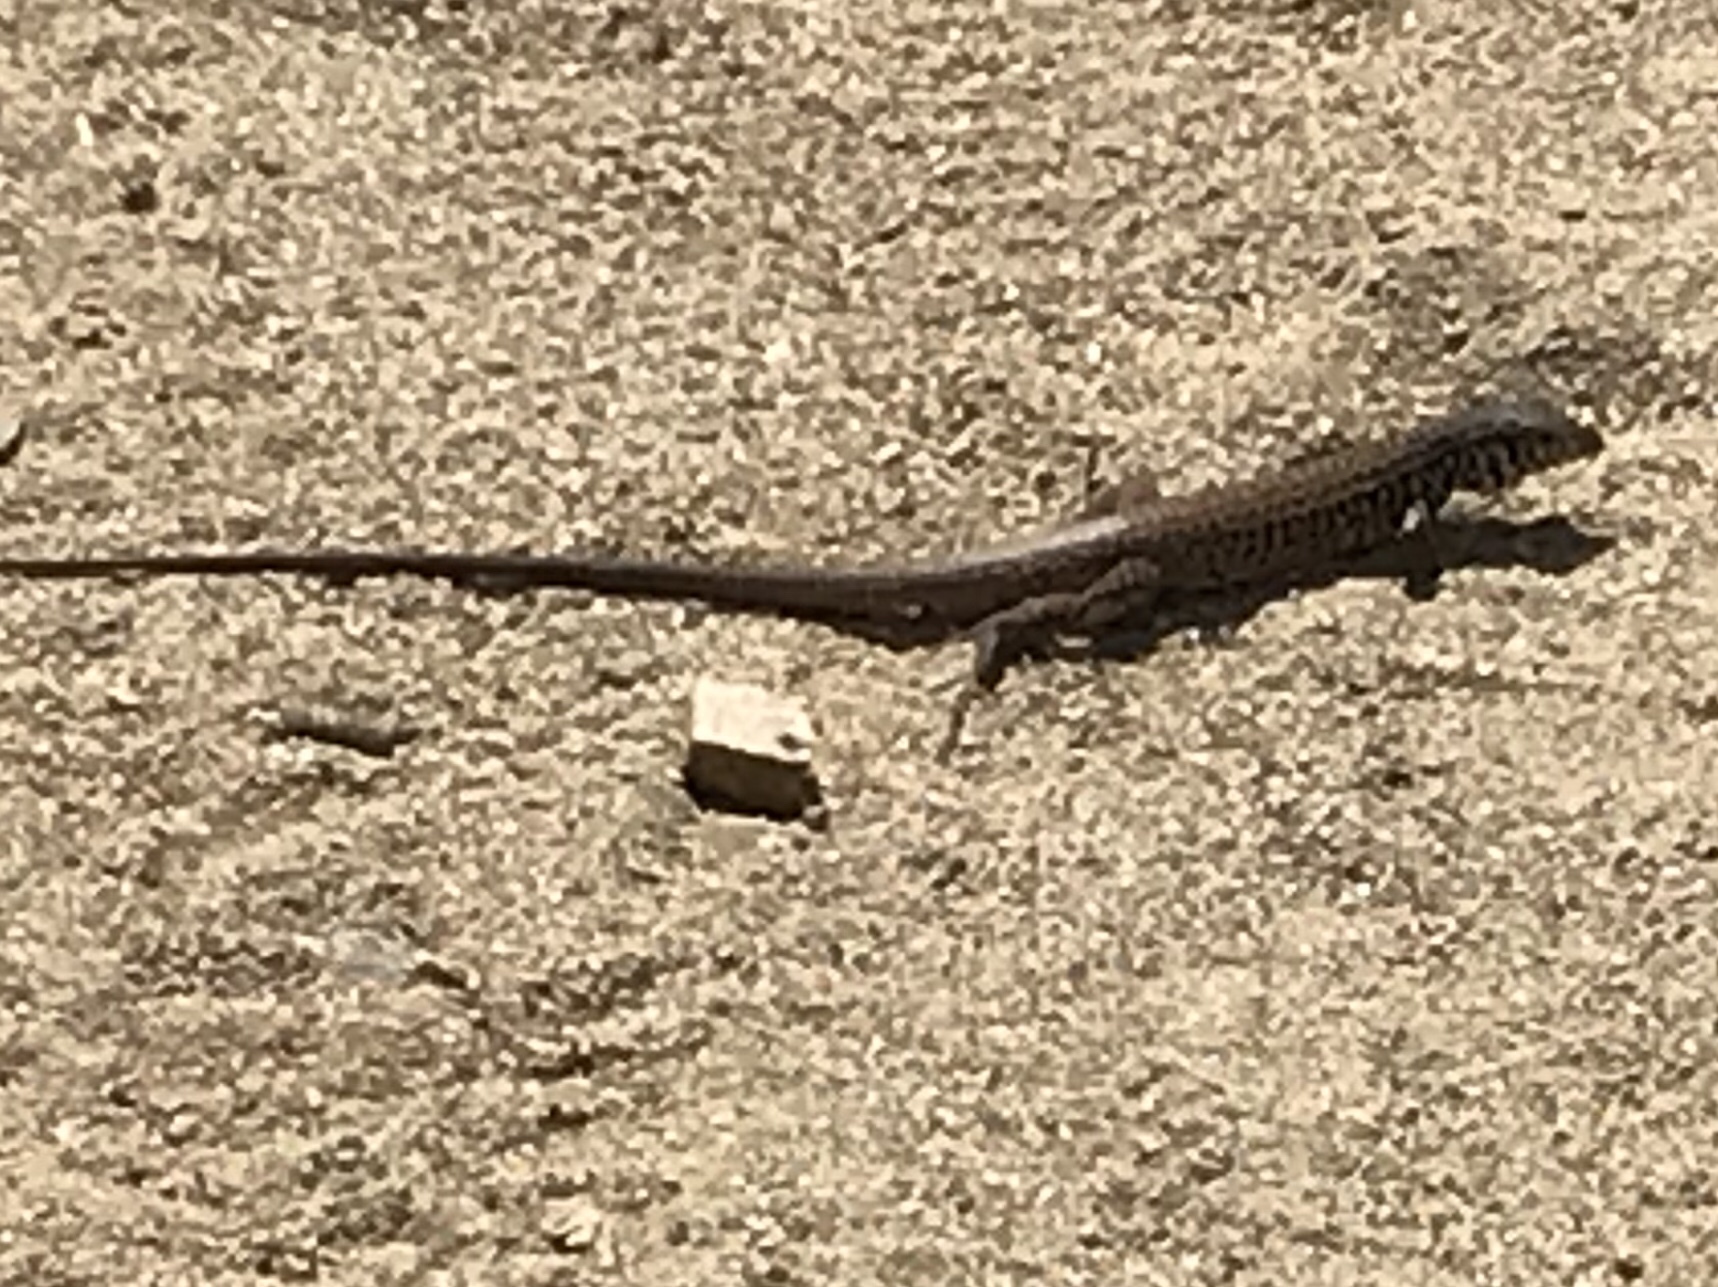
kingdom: Animalia
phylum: Chordata
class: Squamata
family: Teiidae
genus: Aspidoscelis
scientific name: Aspidoscelis tigris
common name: Tiger whiptail
